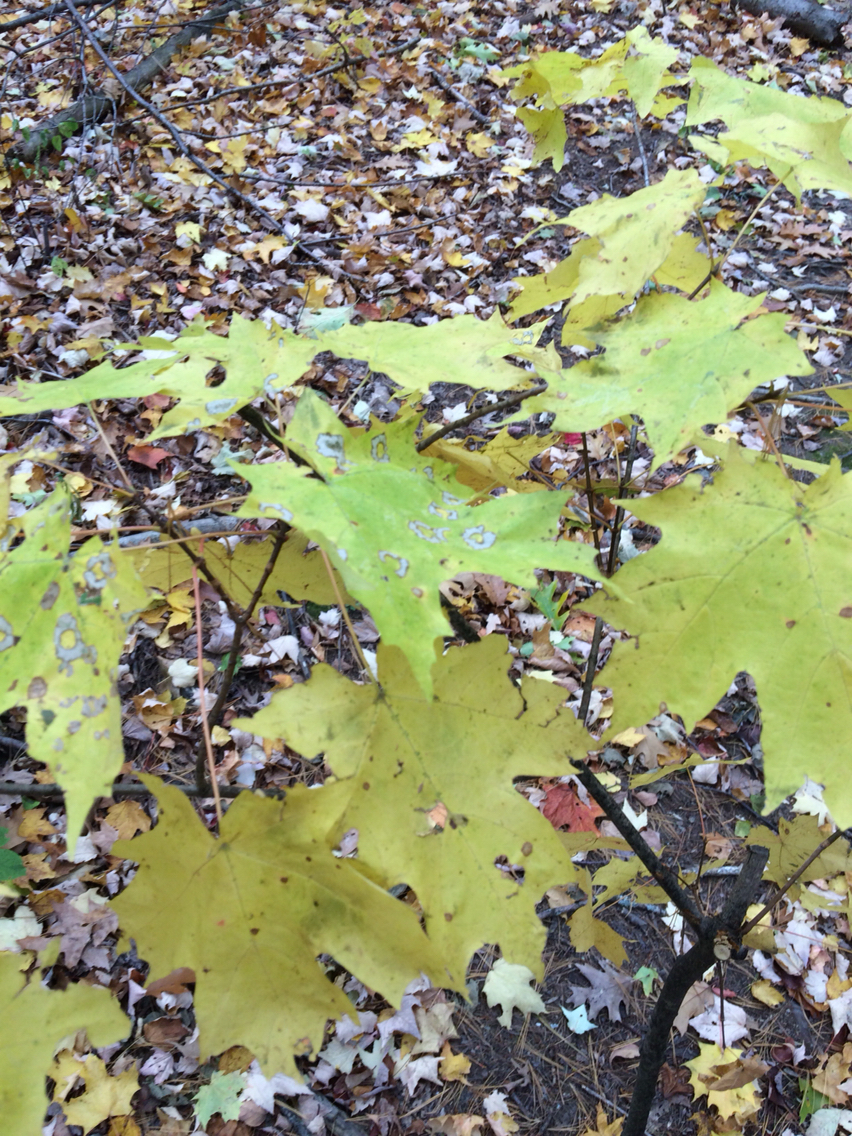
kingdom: Plantae
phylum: Tracheophyta
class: Magnoliopsida
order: Sapindales
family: Sapindaceae
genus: Acer
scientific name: Acer saccharum
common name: Sugar maple
